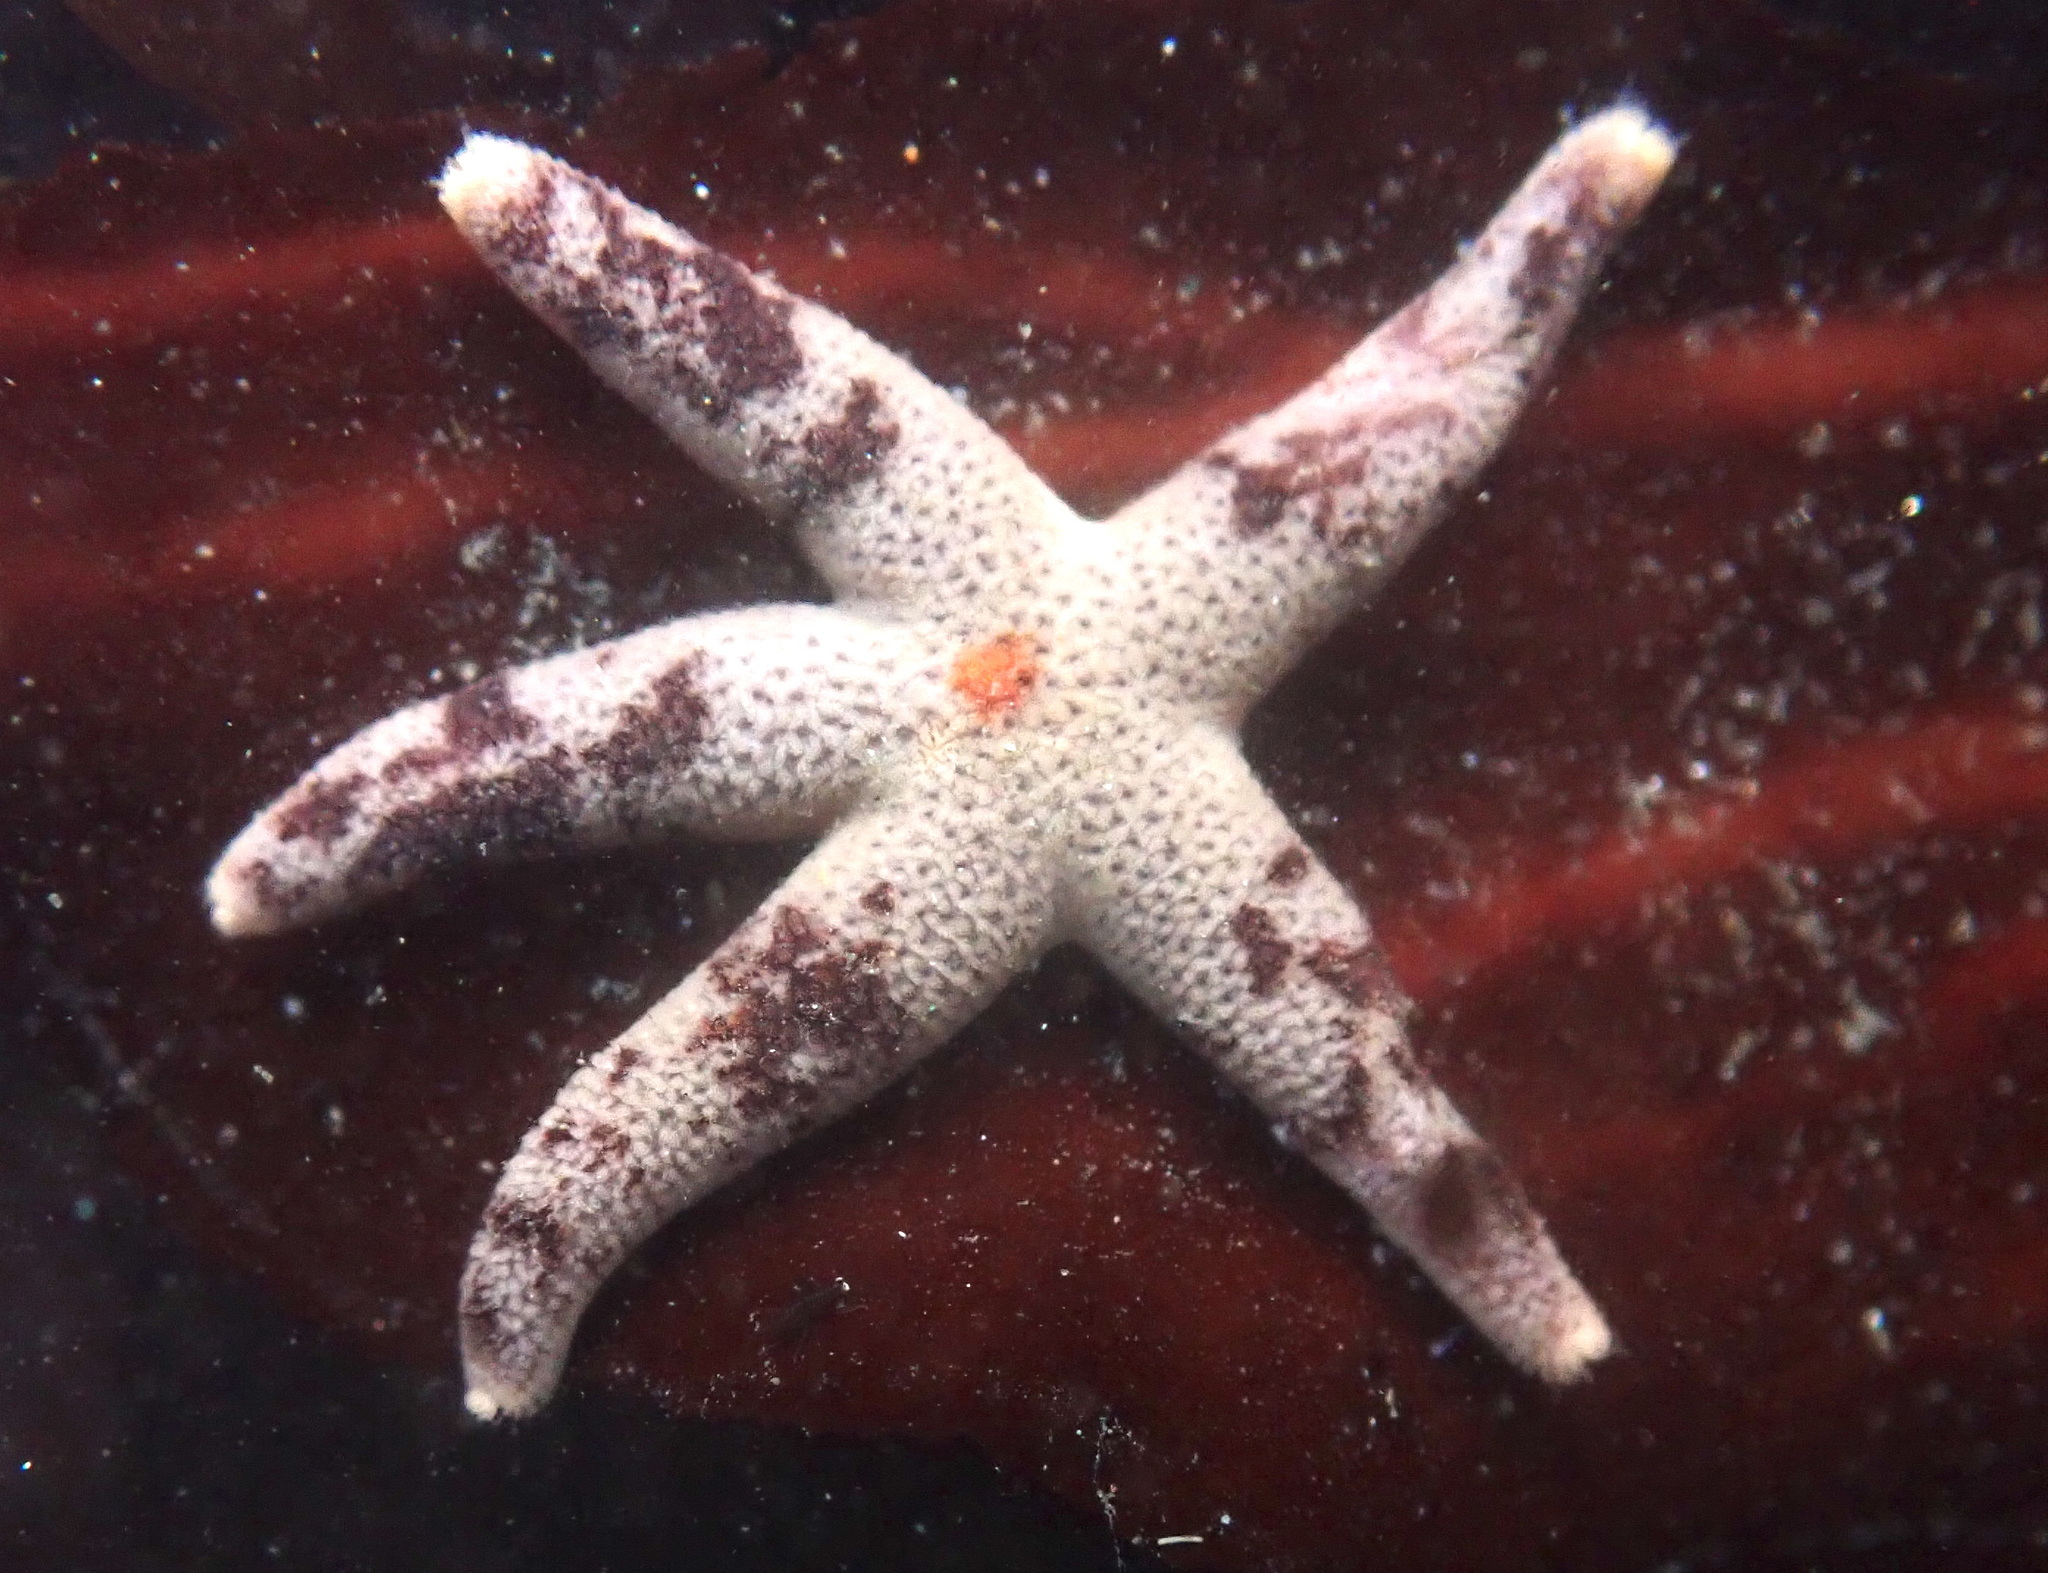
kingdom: Animalia
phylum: Echinodermata
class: Asteroidea
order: Spinulosida
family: Echinasteridae
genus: Henricia
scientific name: Henricia pumila
